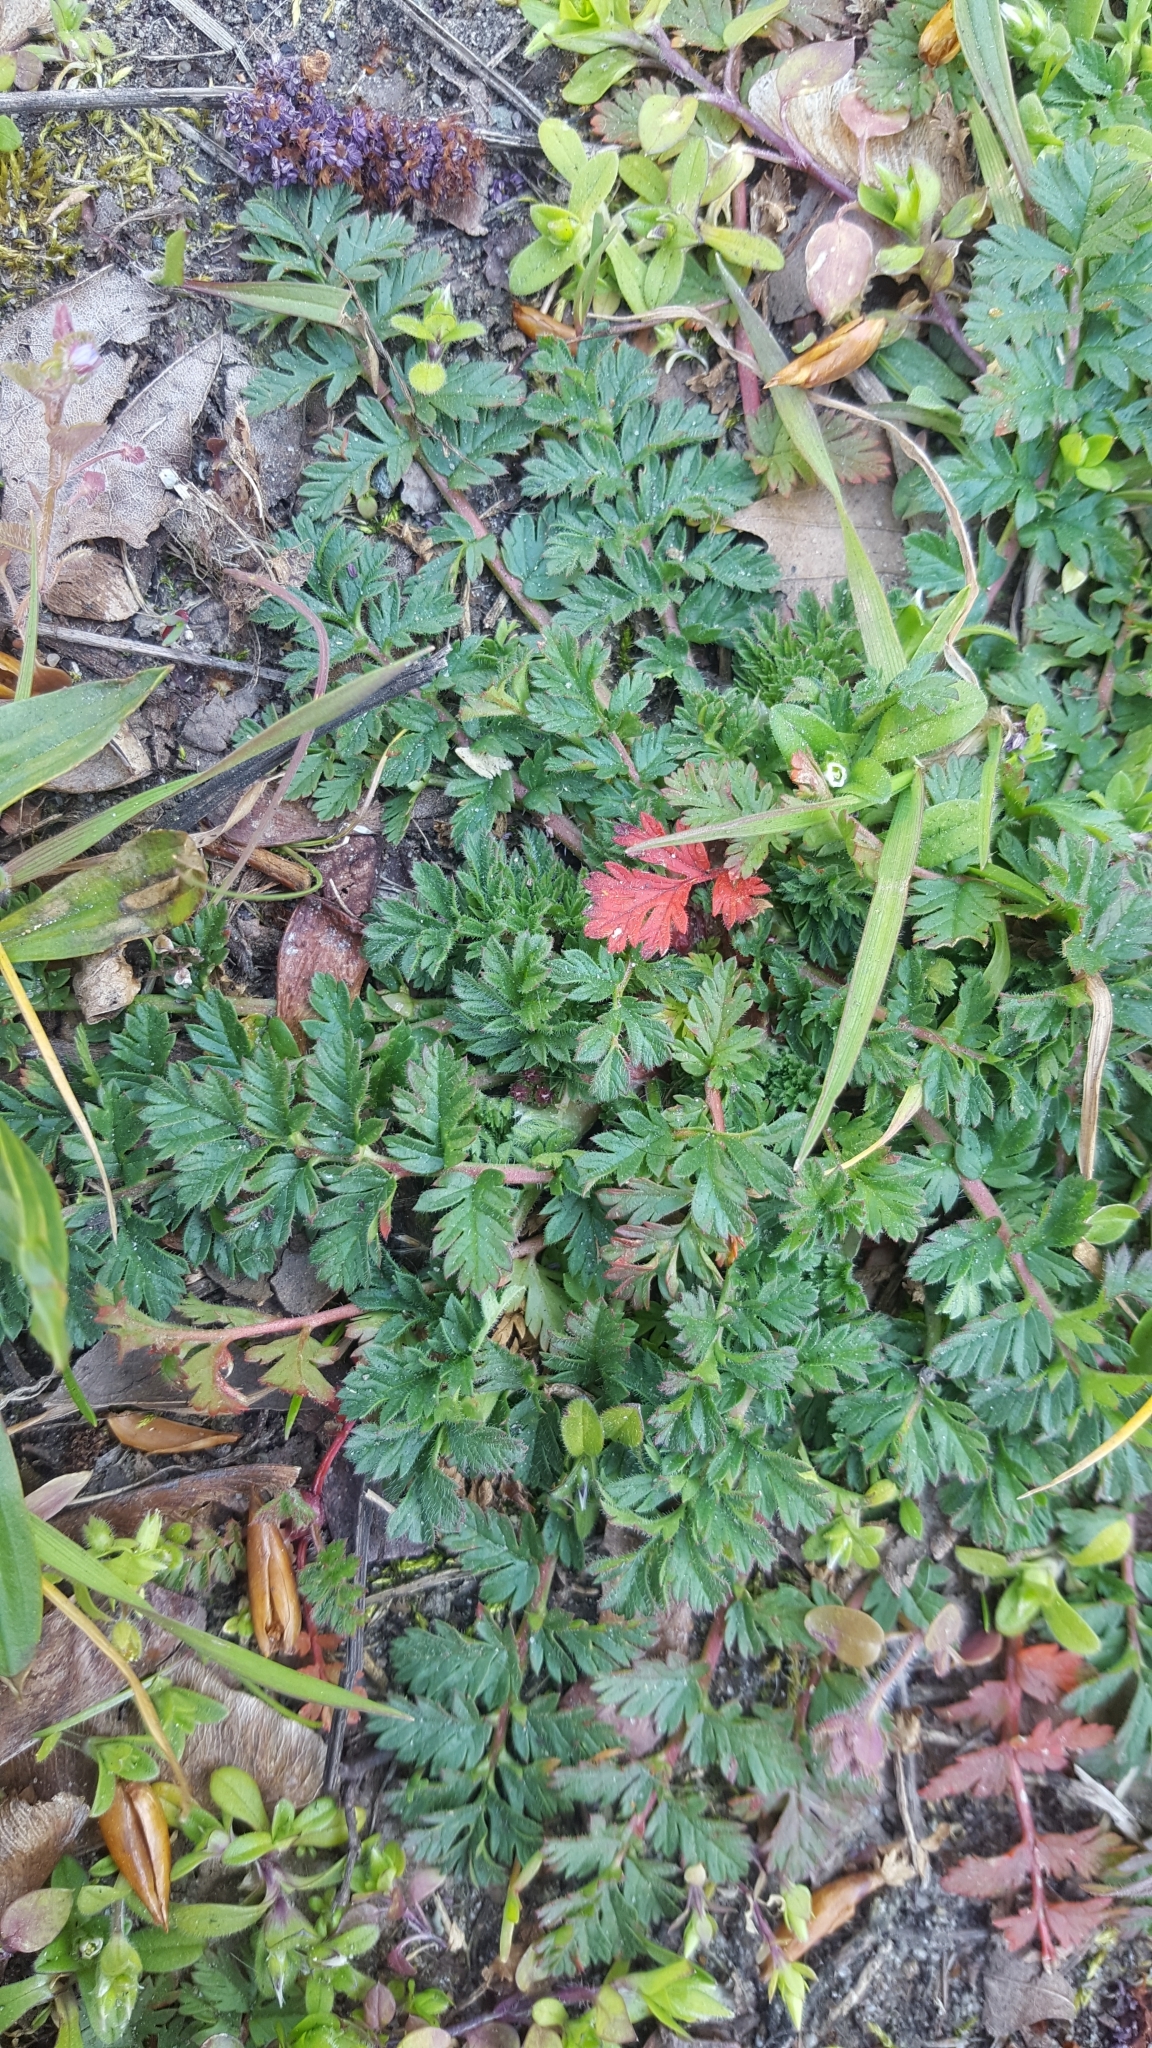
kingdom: Plantae
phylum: Tracheophyta
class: Magnoliopsida
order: Geraniales
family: Geraniaceae
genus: Erodium
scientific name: Erodium cicutarium
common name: Common stork's-bill
